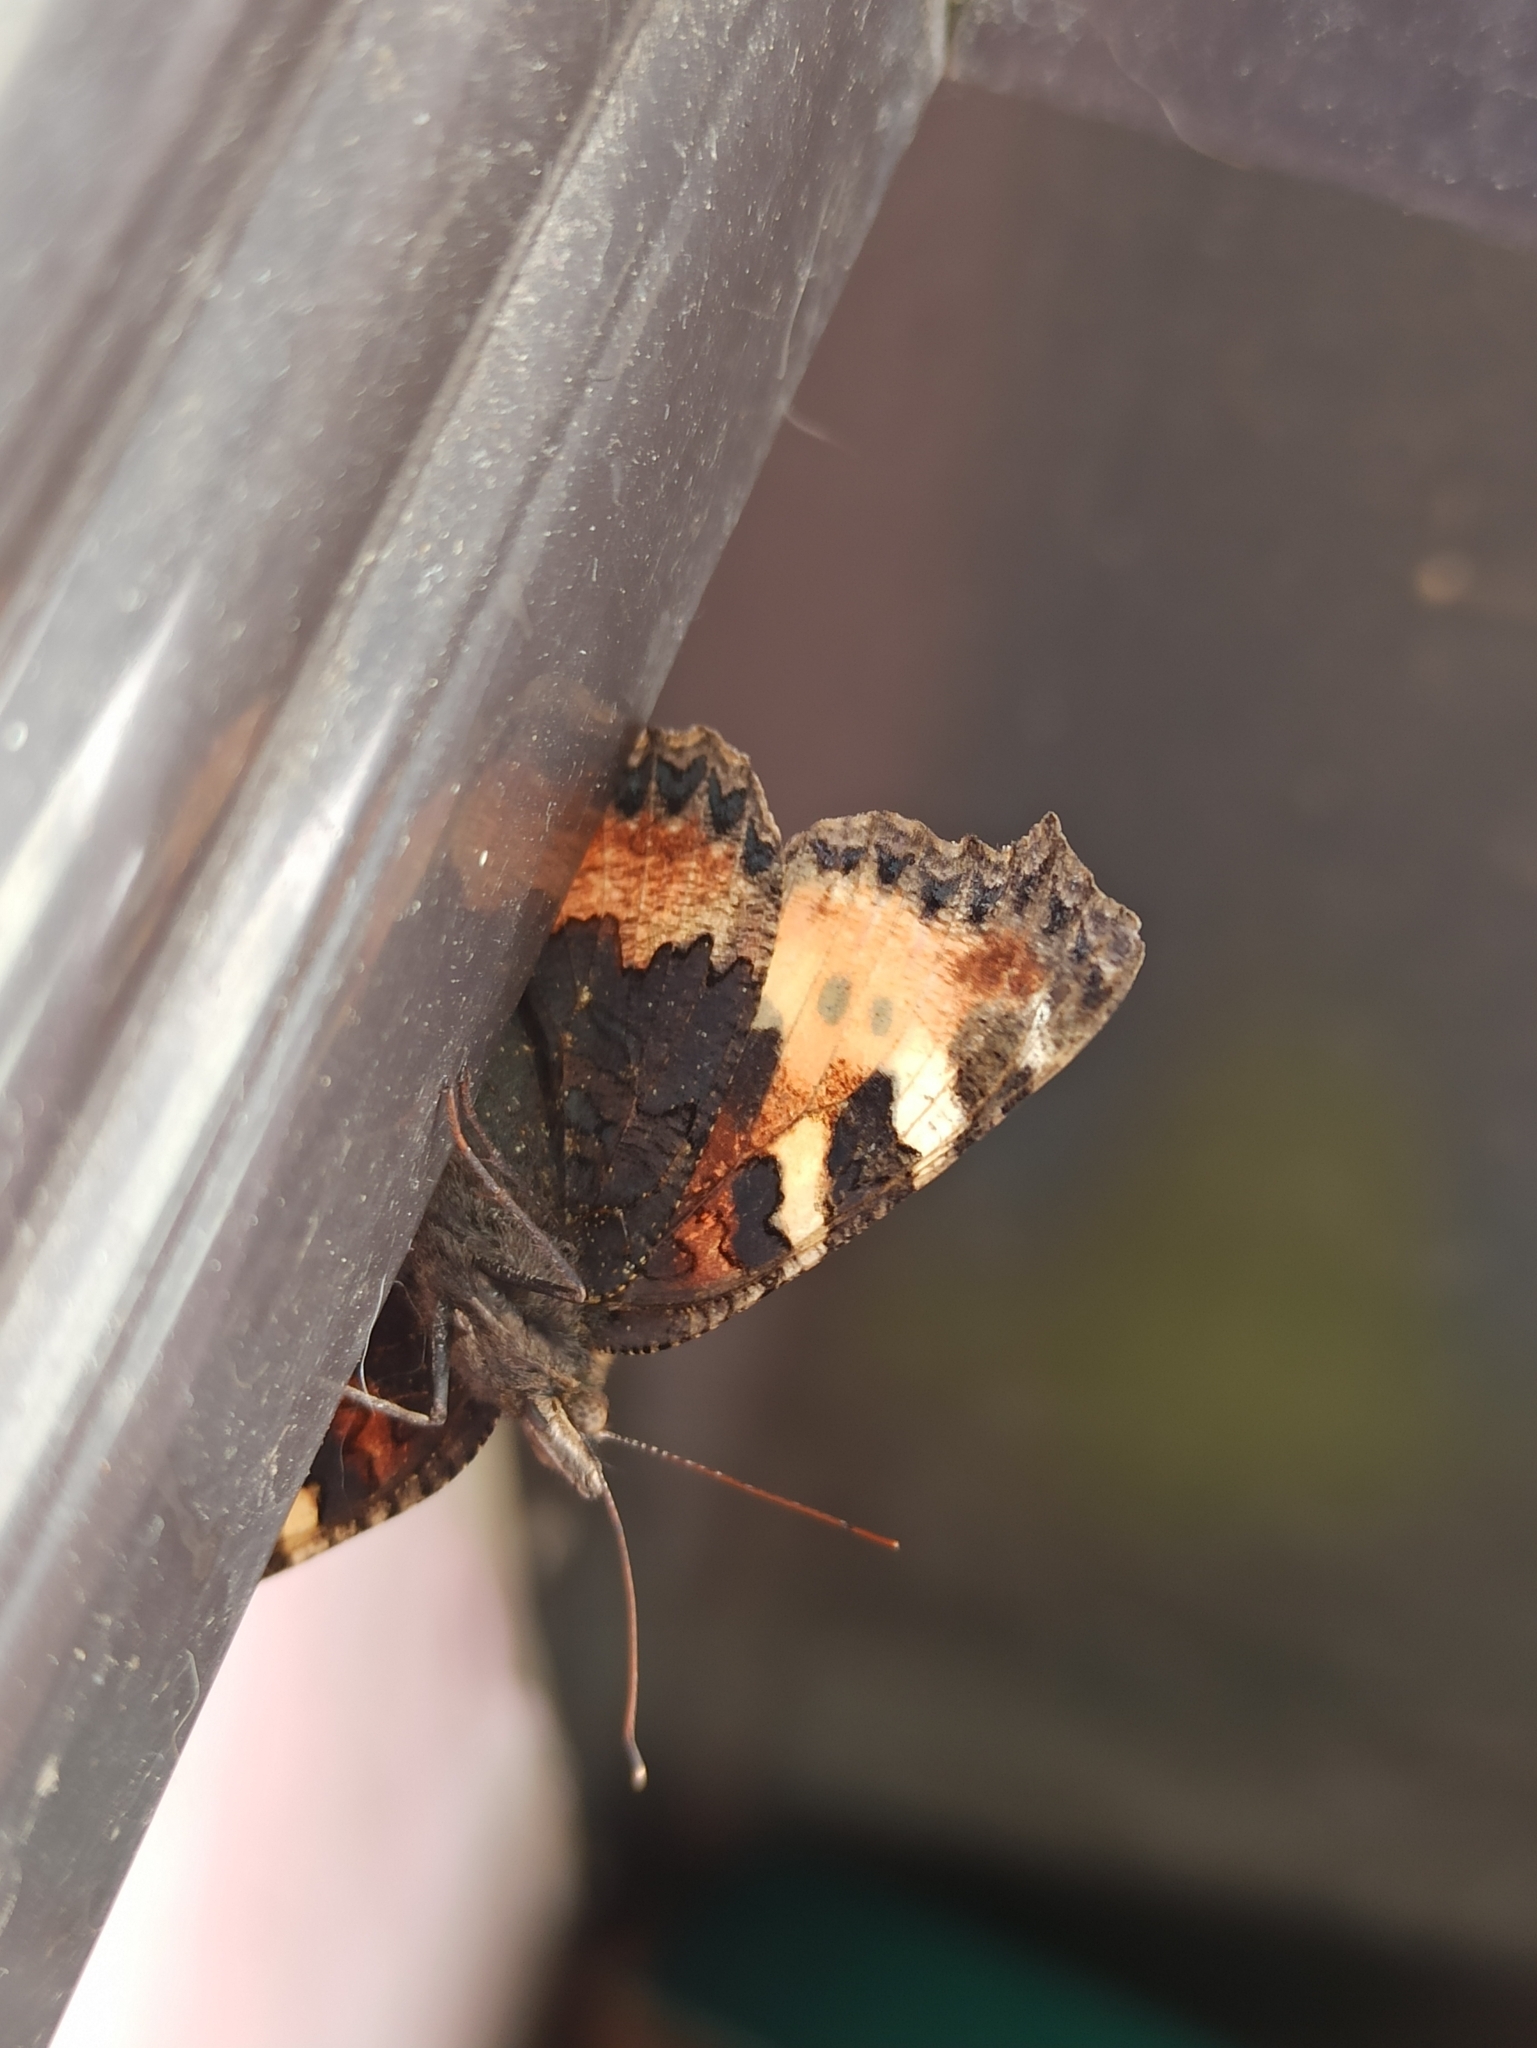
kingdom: Animalia
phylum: Arthropoda
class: Insecta
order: Lepidoptera
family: Nymphalidae
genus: Aglais
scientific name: Aglais urticae
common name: Small tortoiseshell
